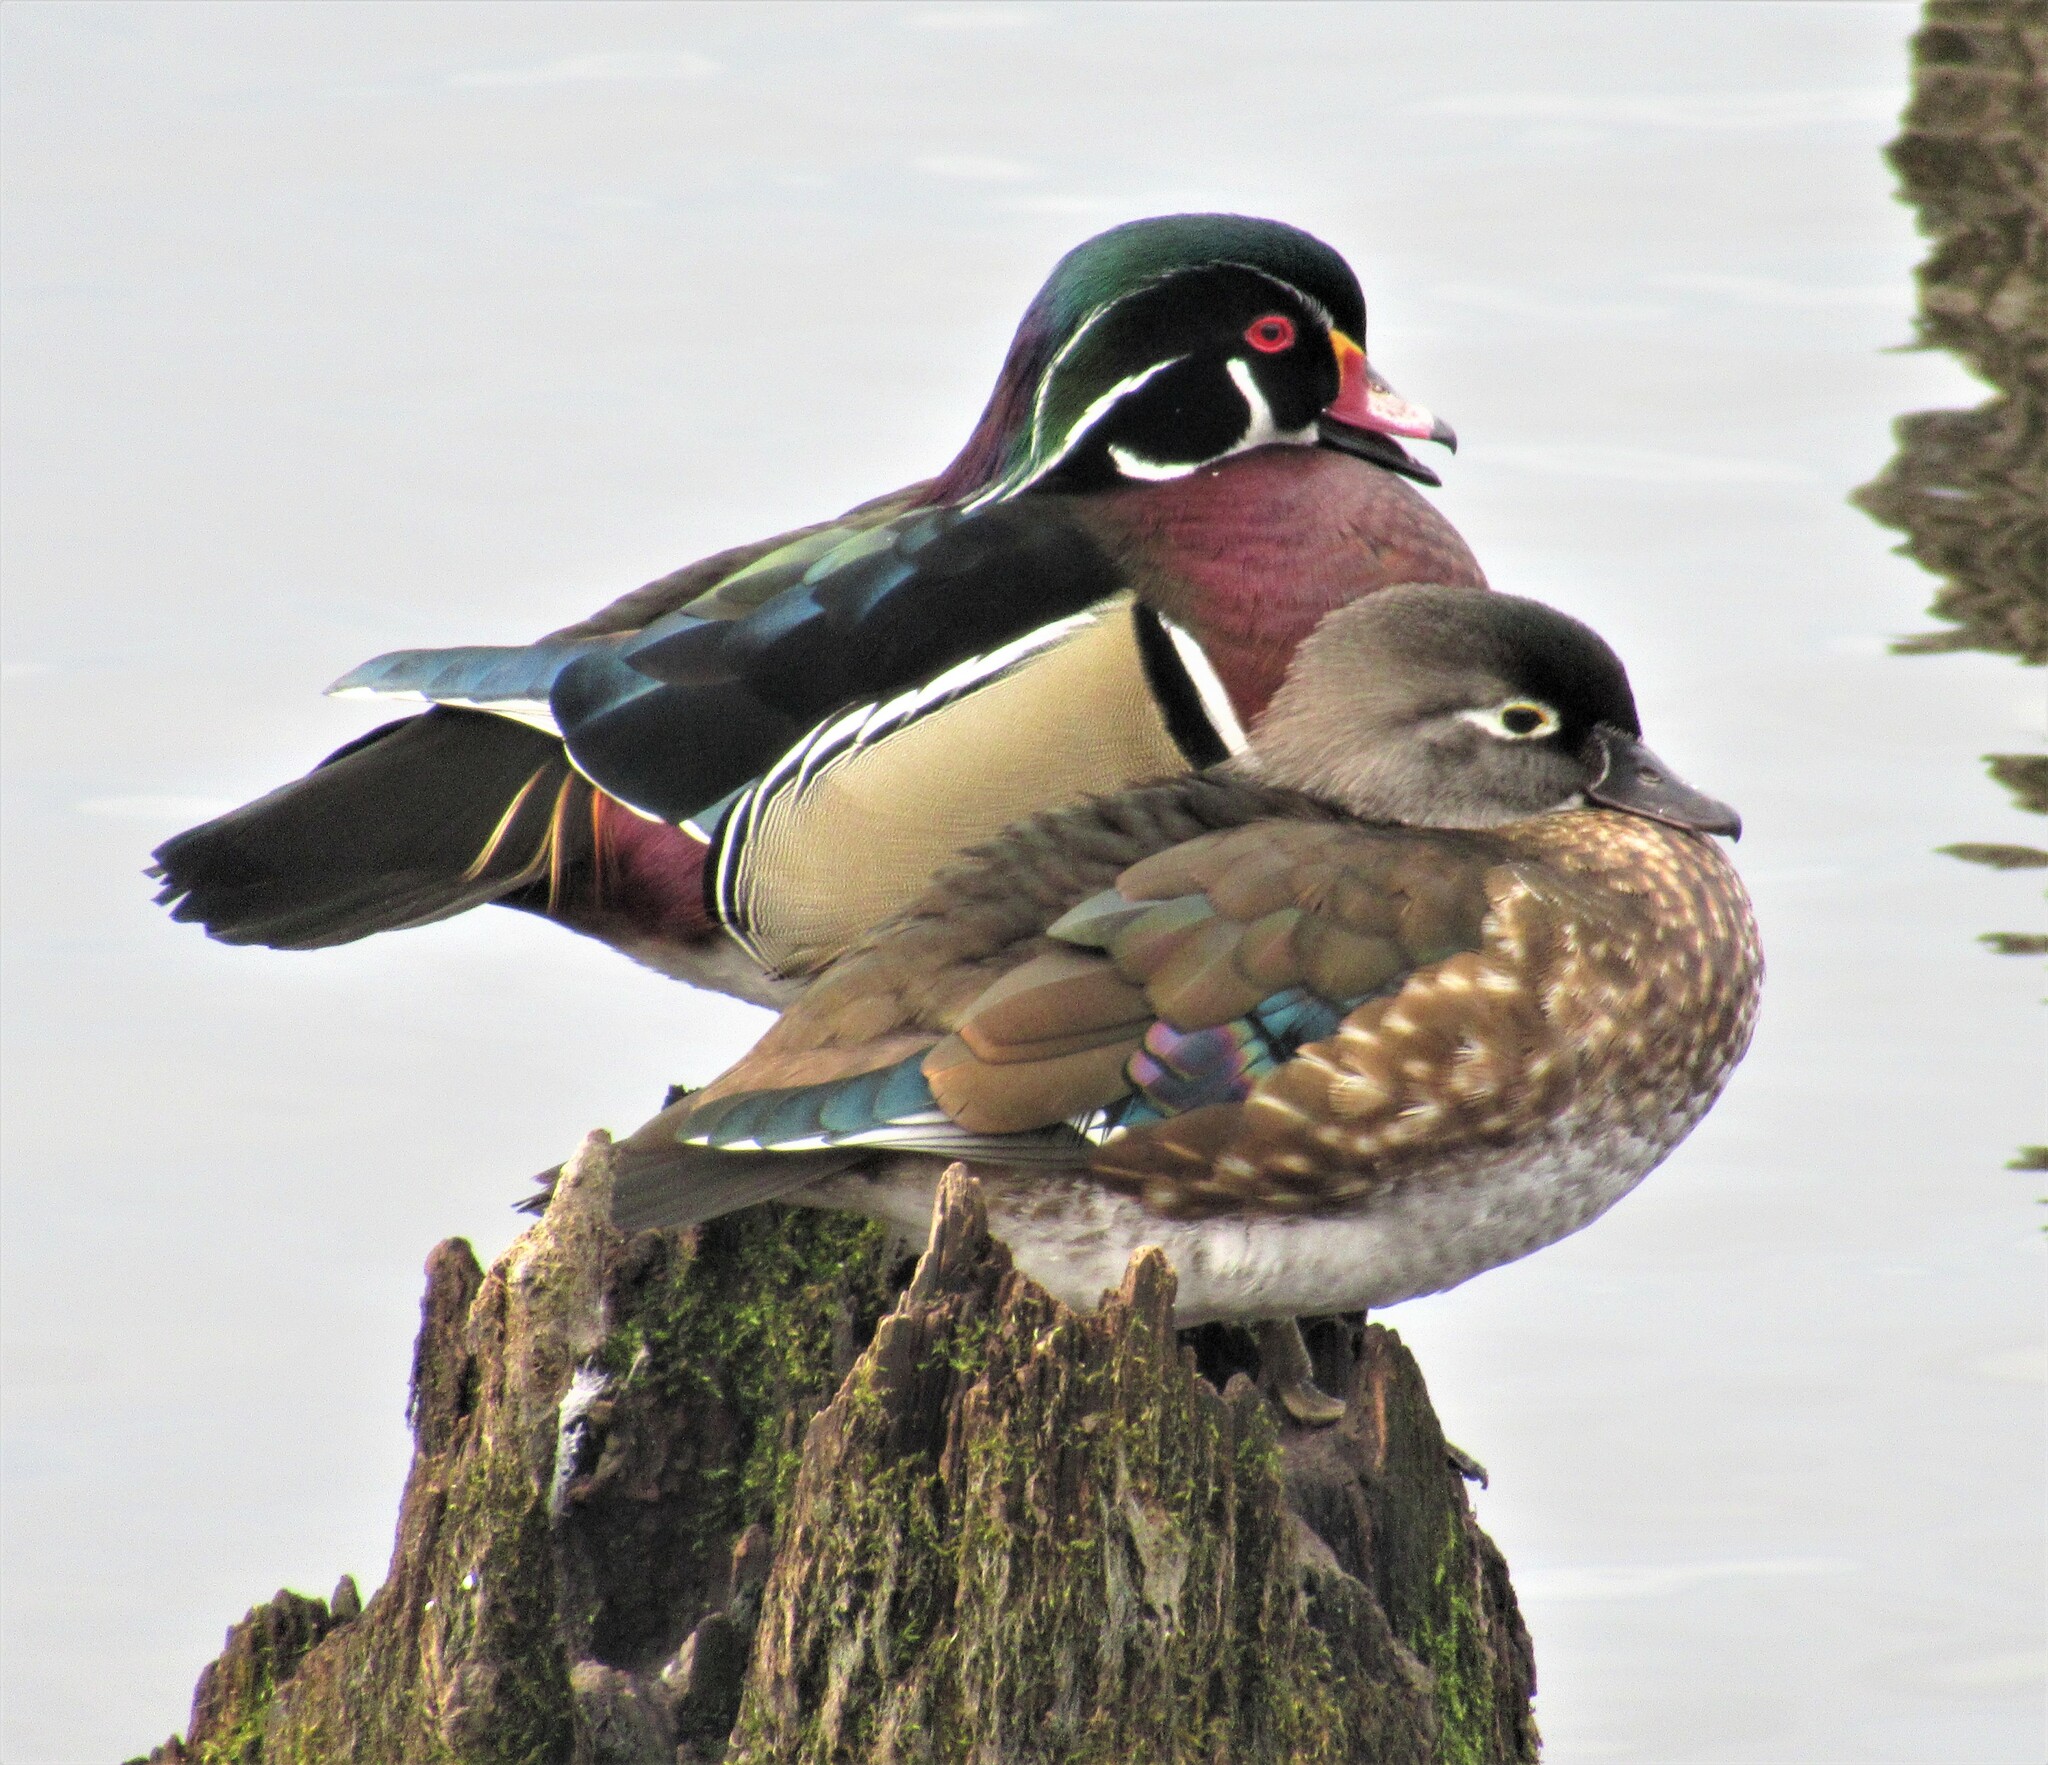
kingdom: Animalia
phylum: Chordata
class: Aves
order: Anseriformes
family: Anatidae
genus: Aix
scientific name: Aix sponsa
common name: Wood duck
